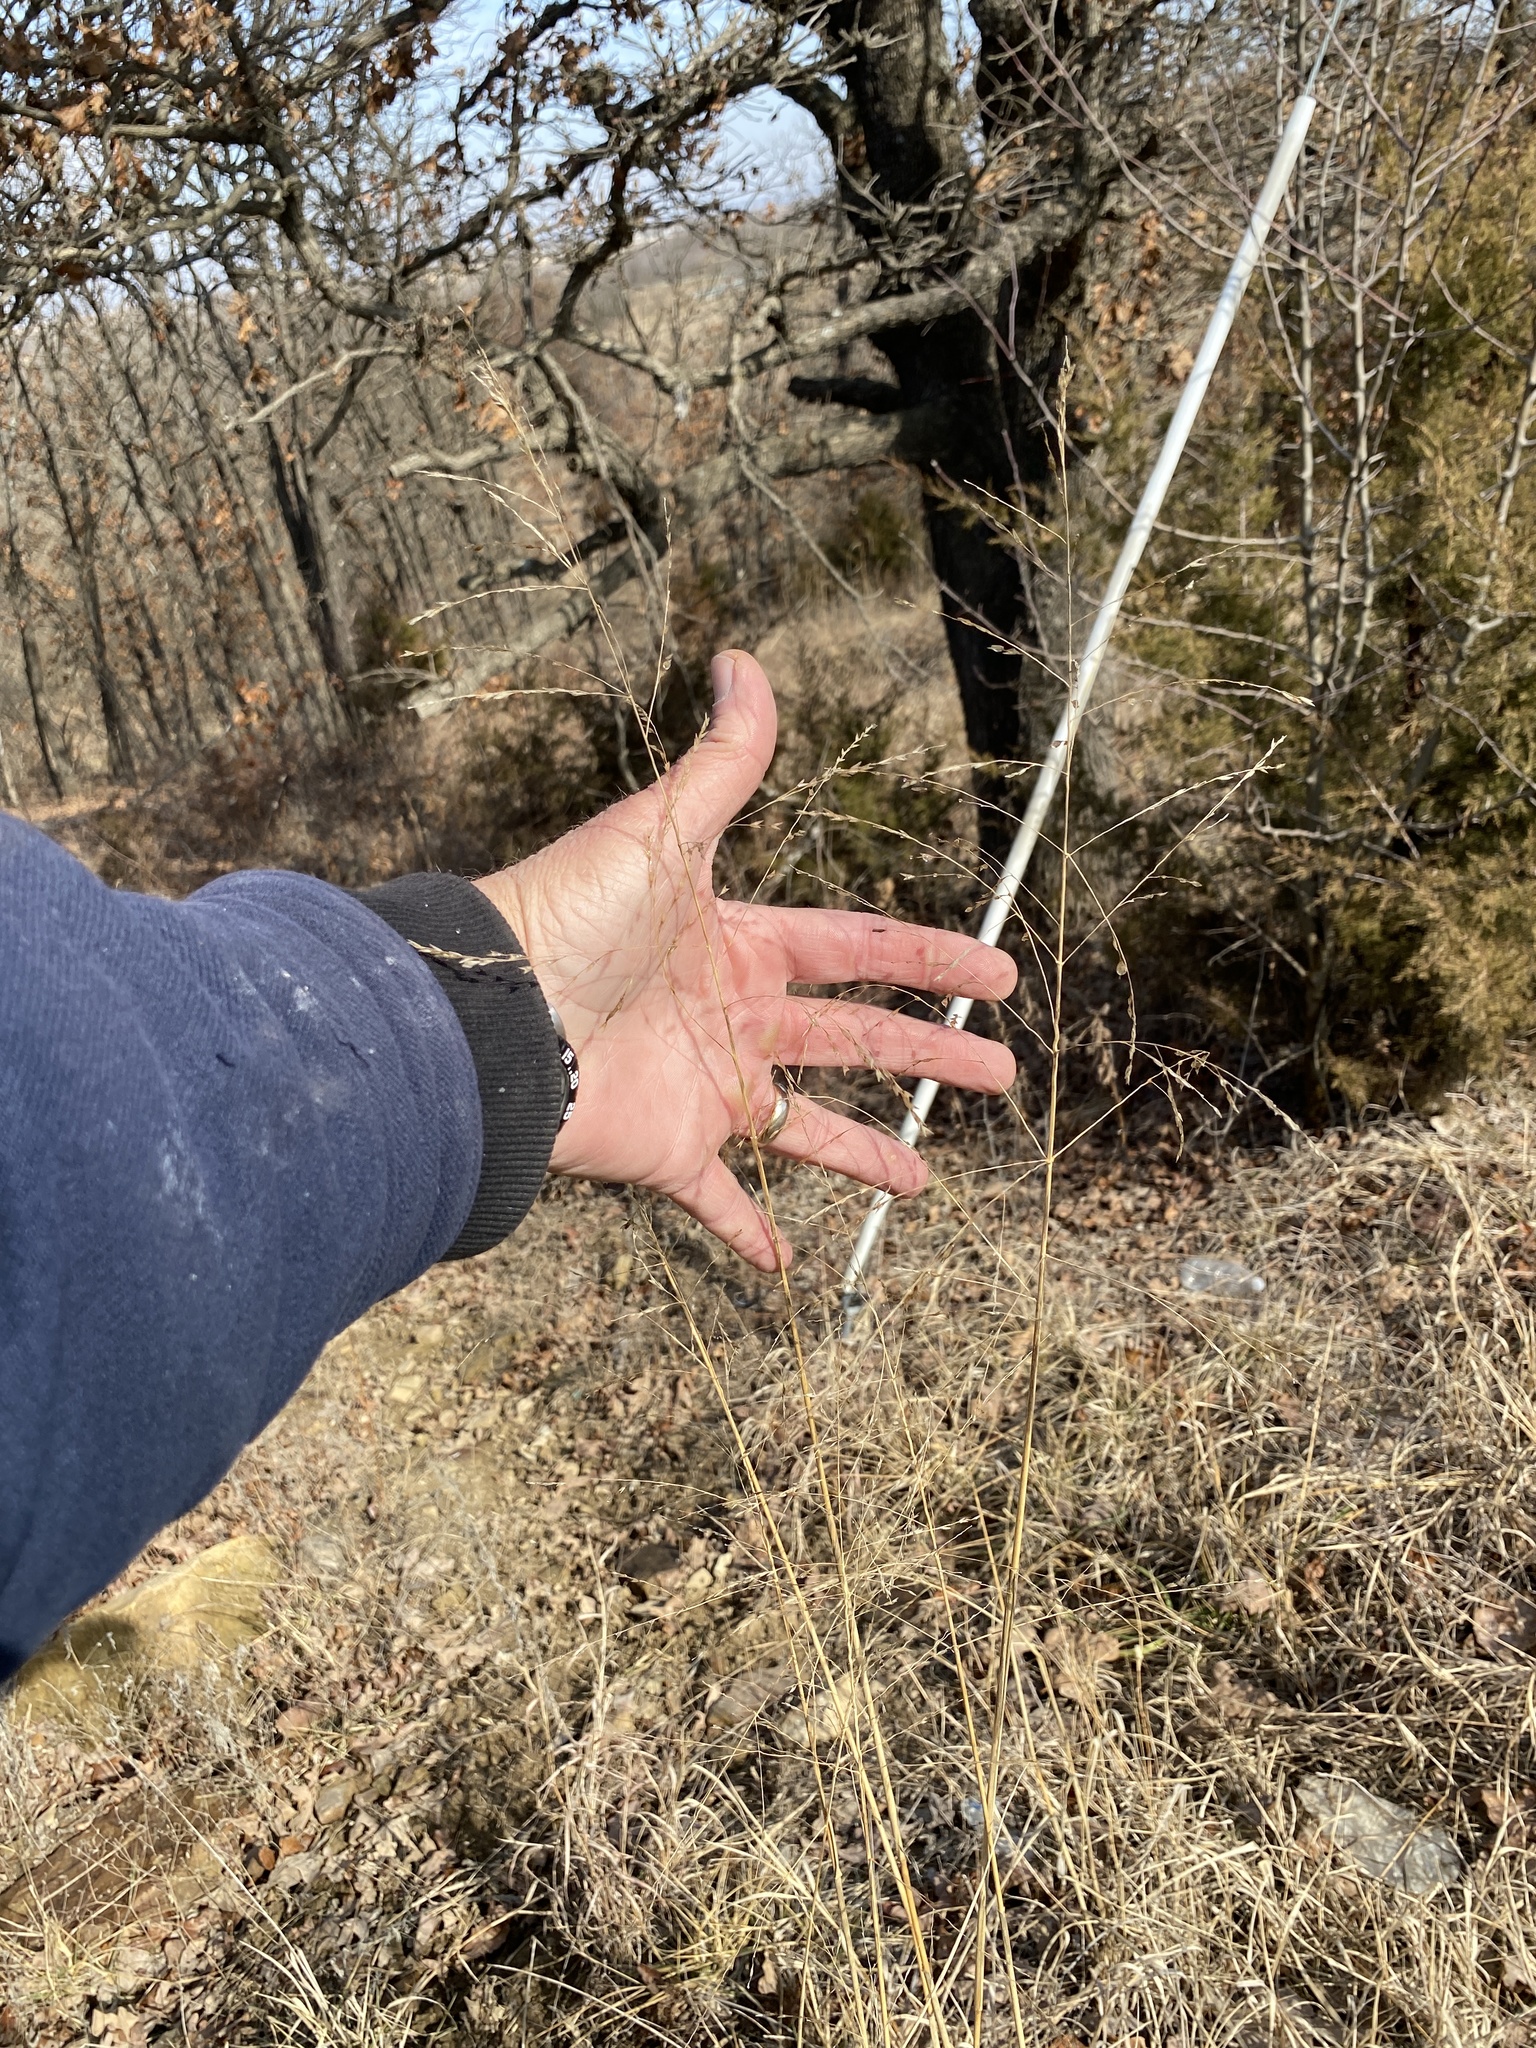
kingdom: Plantae
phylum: Tracheophyta
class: Liliopsida
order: Poales
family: Poaceae
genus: Tridens
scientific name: Tridens flavus
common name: Purpletop
